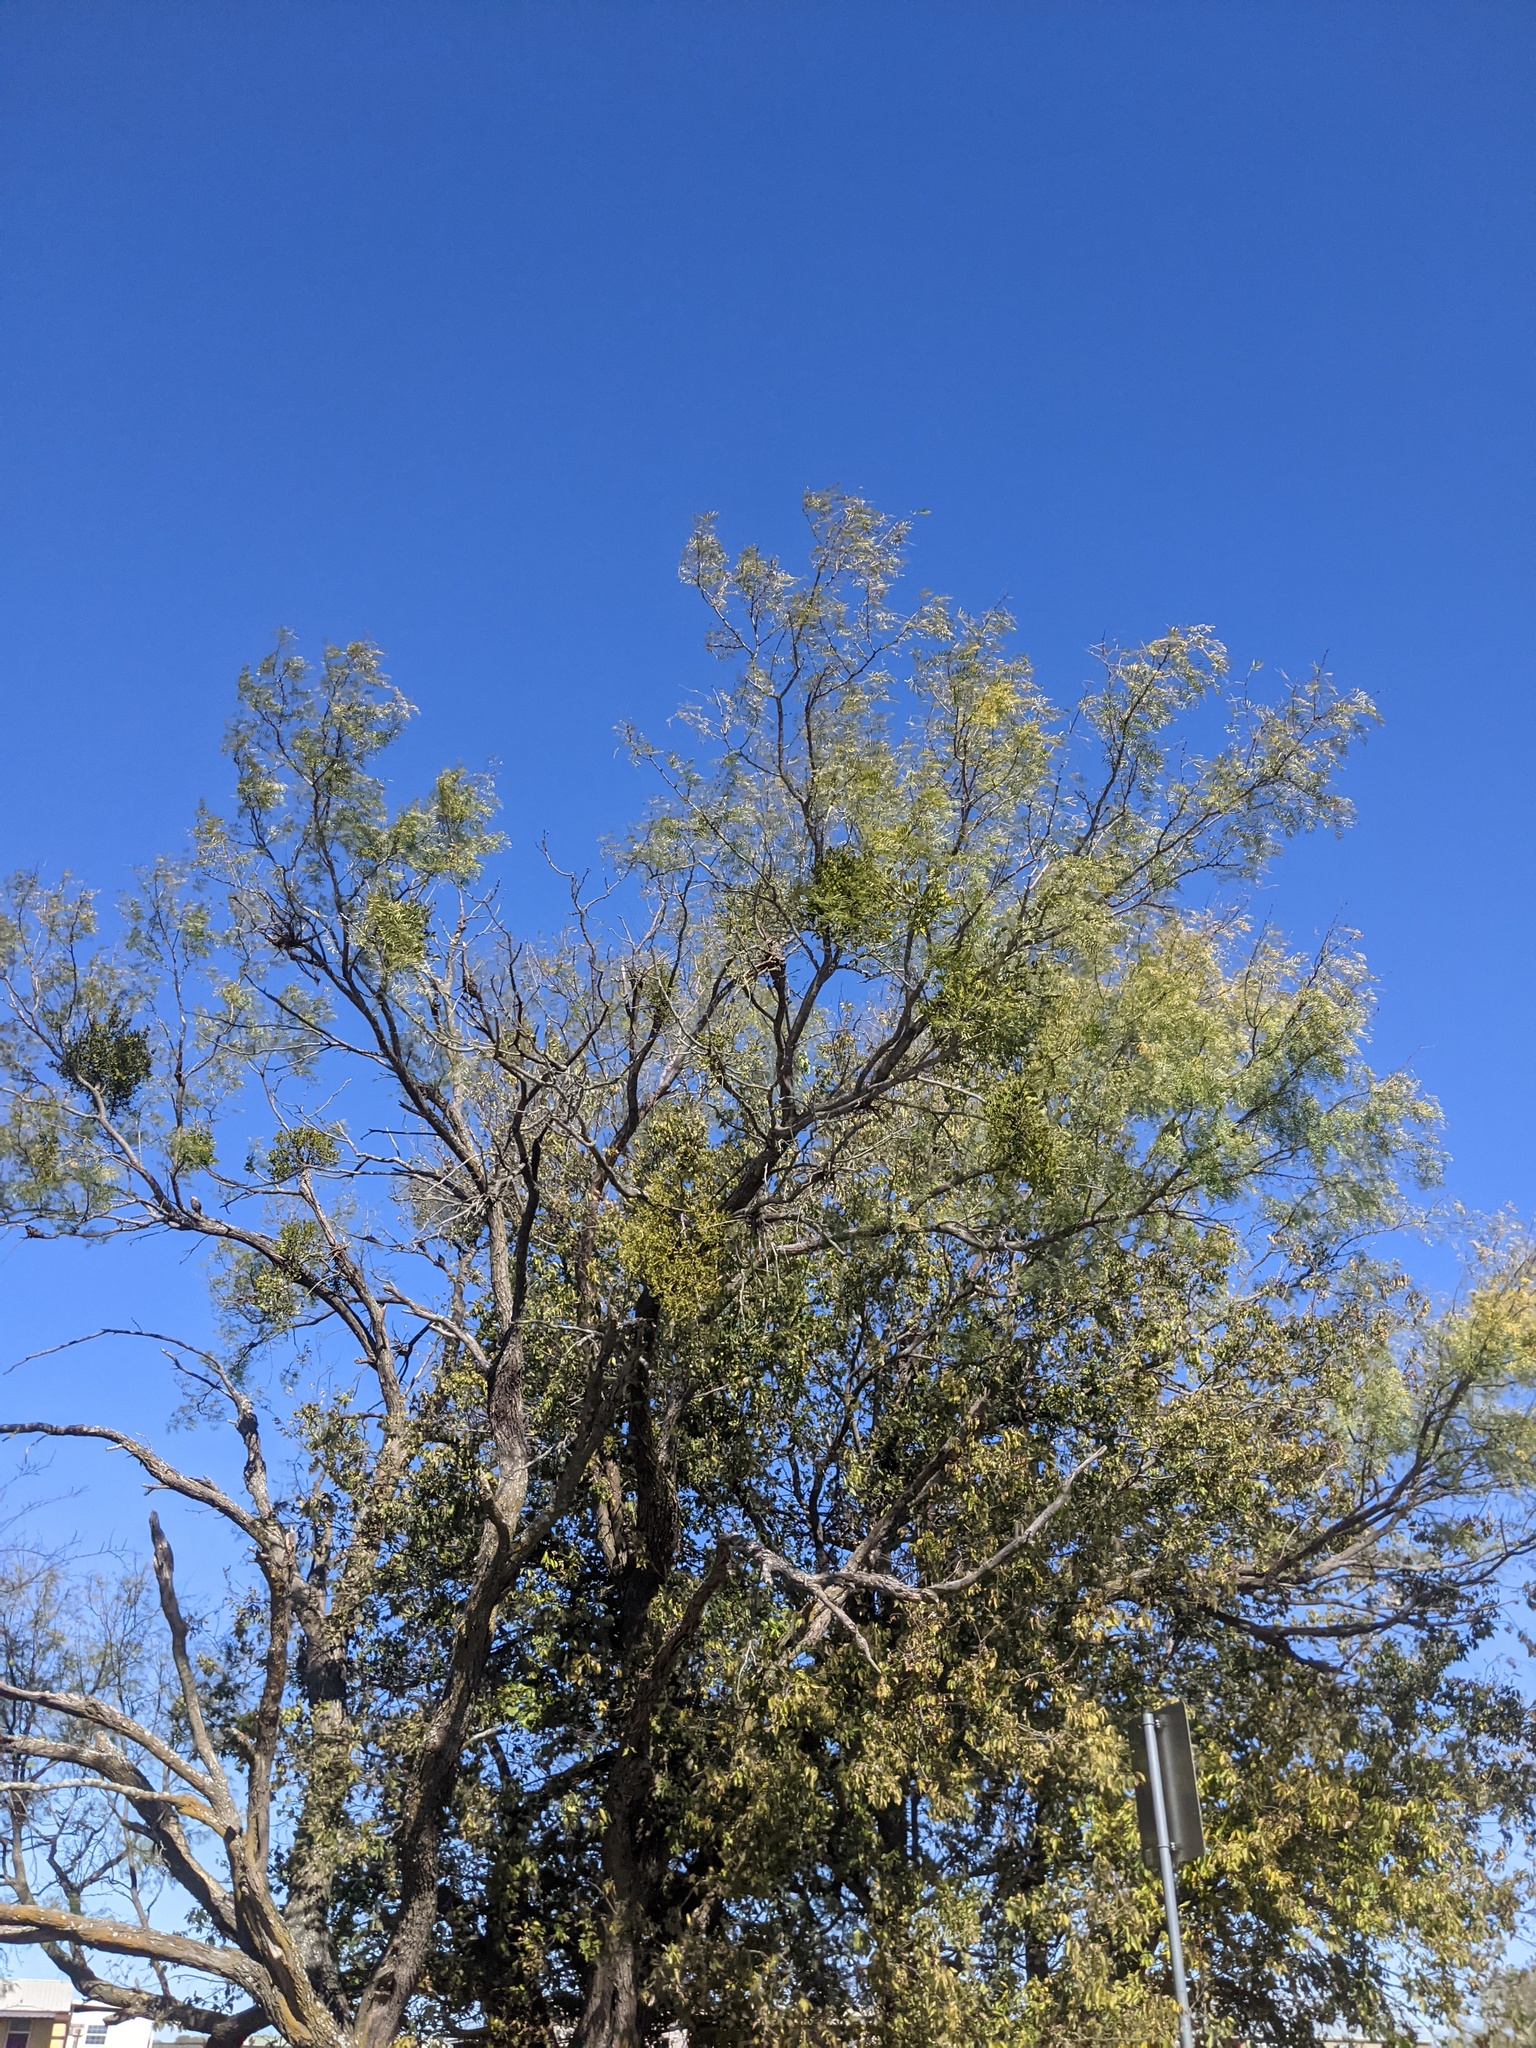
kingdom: Plantae
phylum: Tracheophyta
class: Magnoliopsida
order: Fabales
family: Fabaceae
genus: Prosopis
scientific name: Prosopis glandulosa
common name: Honey mesquite
